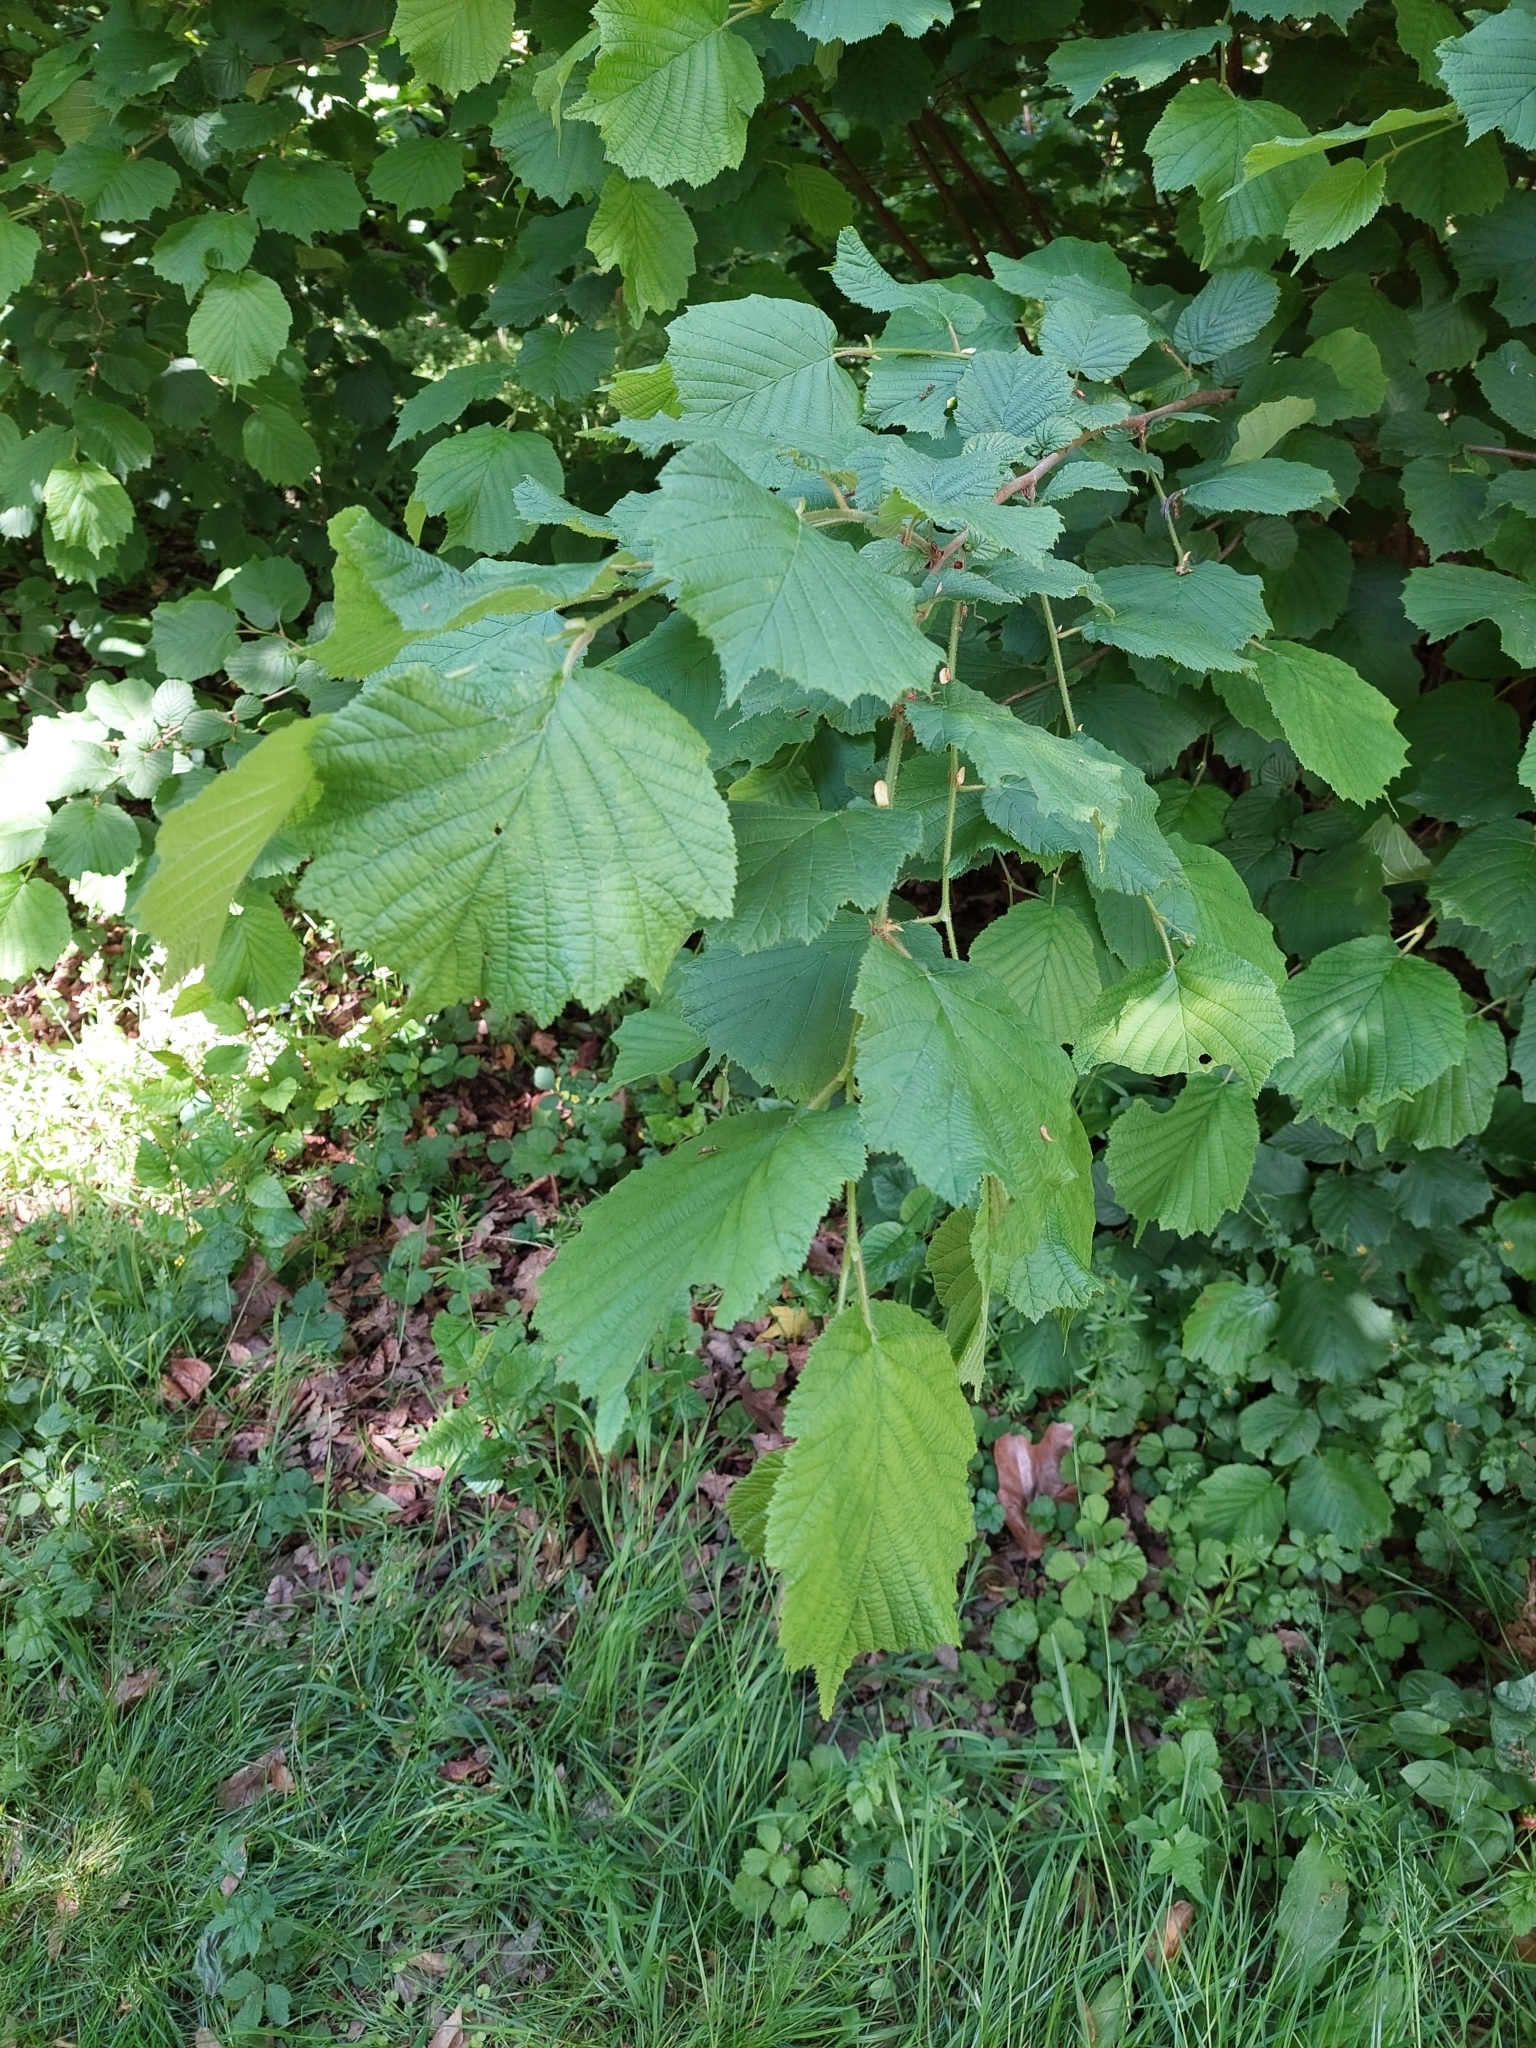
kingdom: Plantae
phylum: Tracheophyta
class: Magnoliopsida
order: Fagales
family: Betulaceae
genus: Corylus
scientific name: Corylus avellana
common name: European hazel
